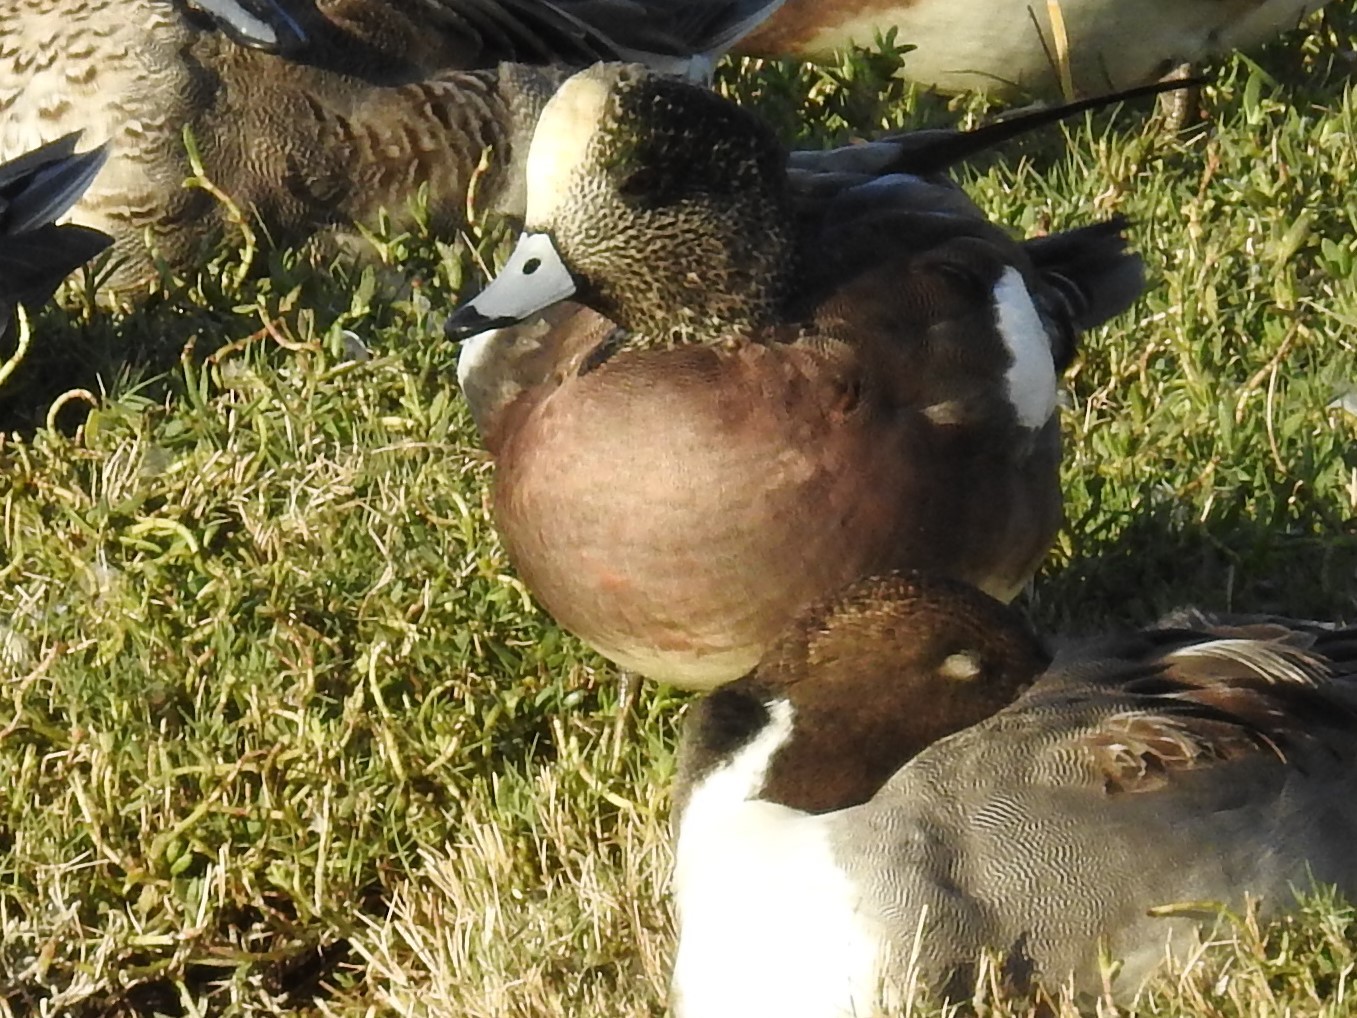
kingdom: Animalia
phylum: Chordata
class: Aves
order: Anseriformes
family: Anatidae
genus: Mareca
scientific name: Mareca americana
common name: American wigeon
